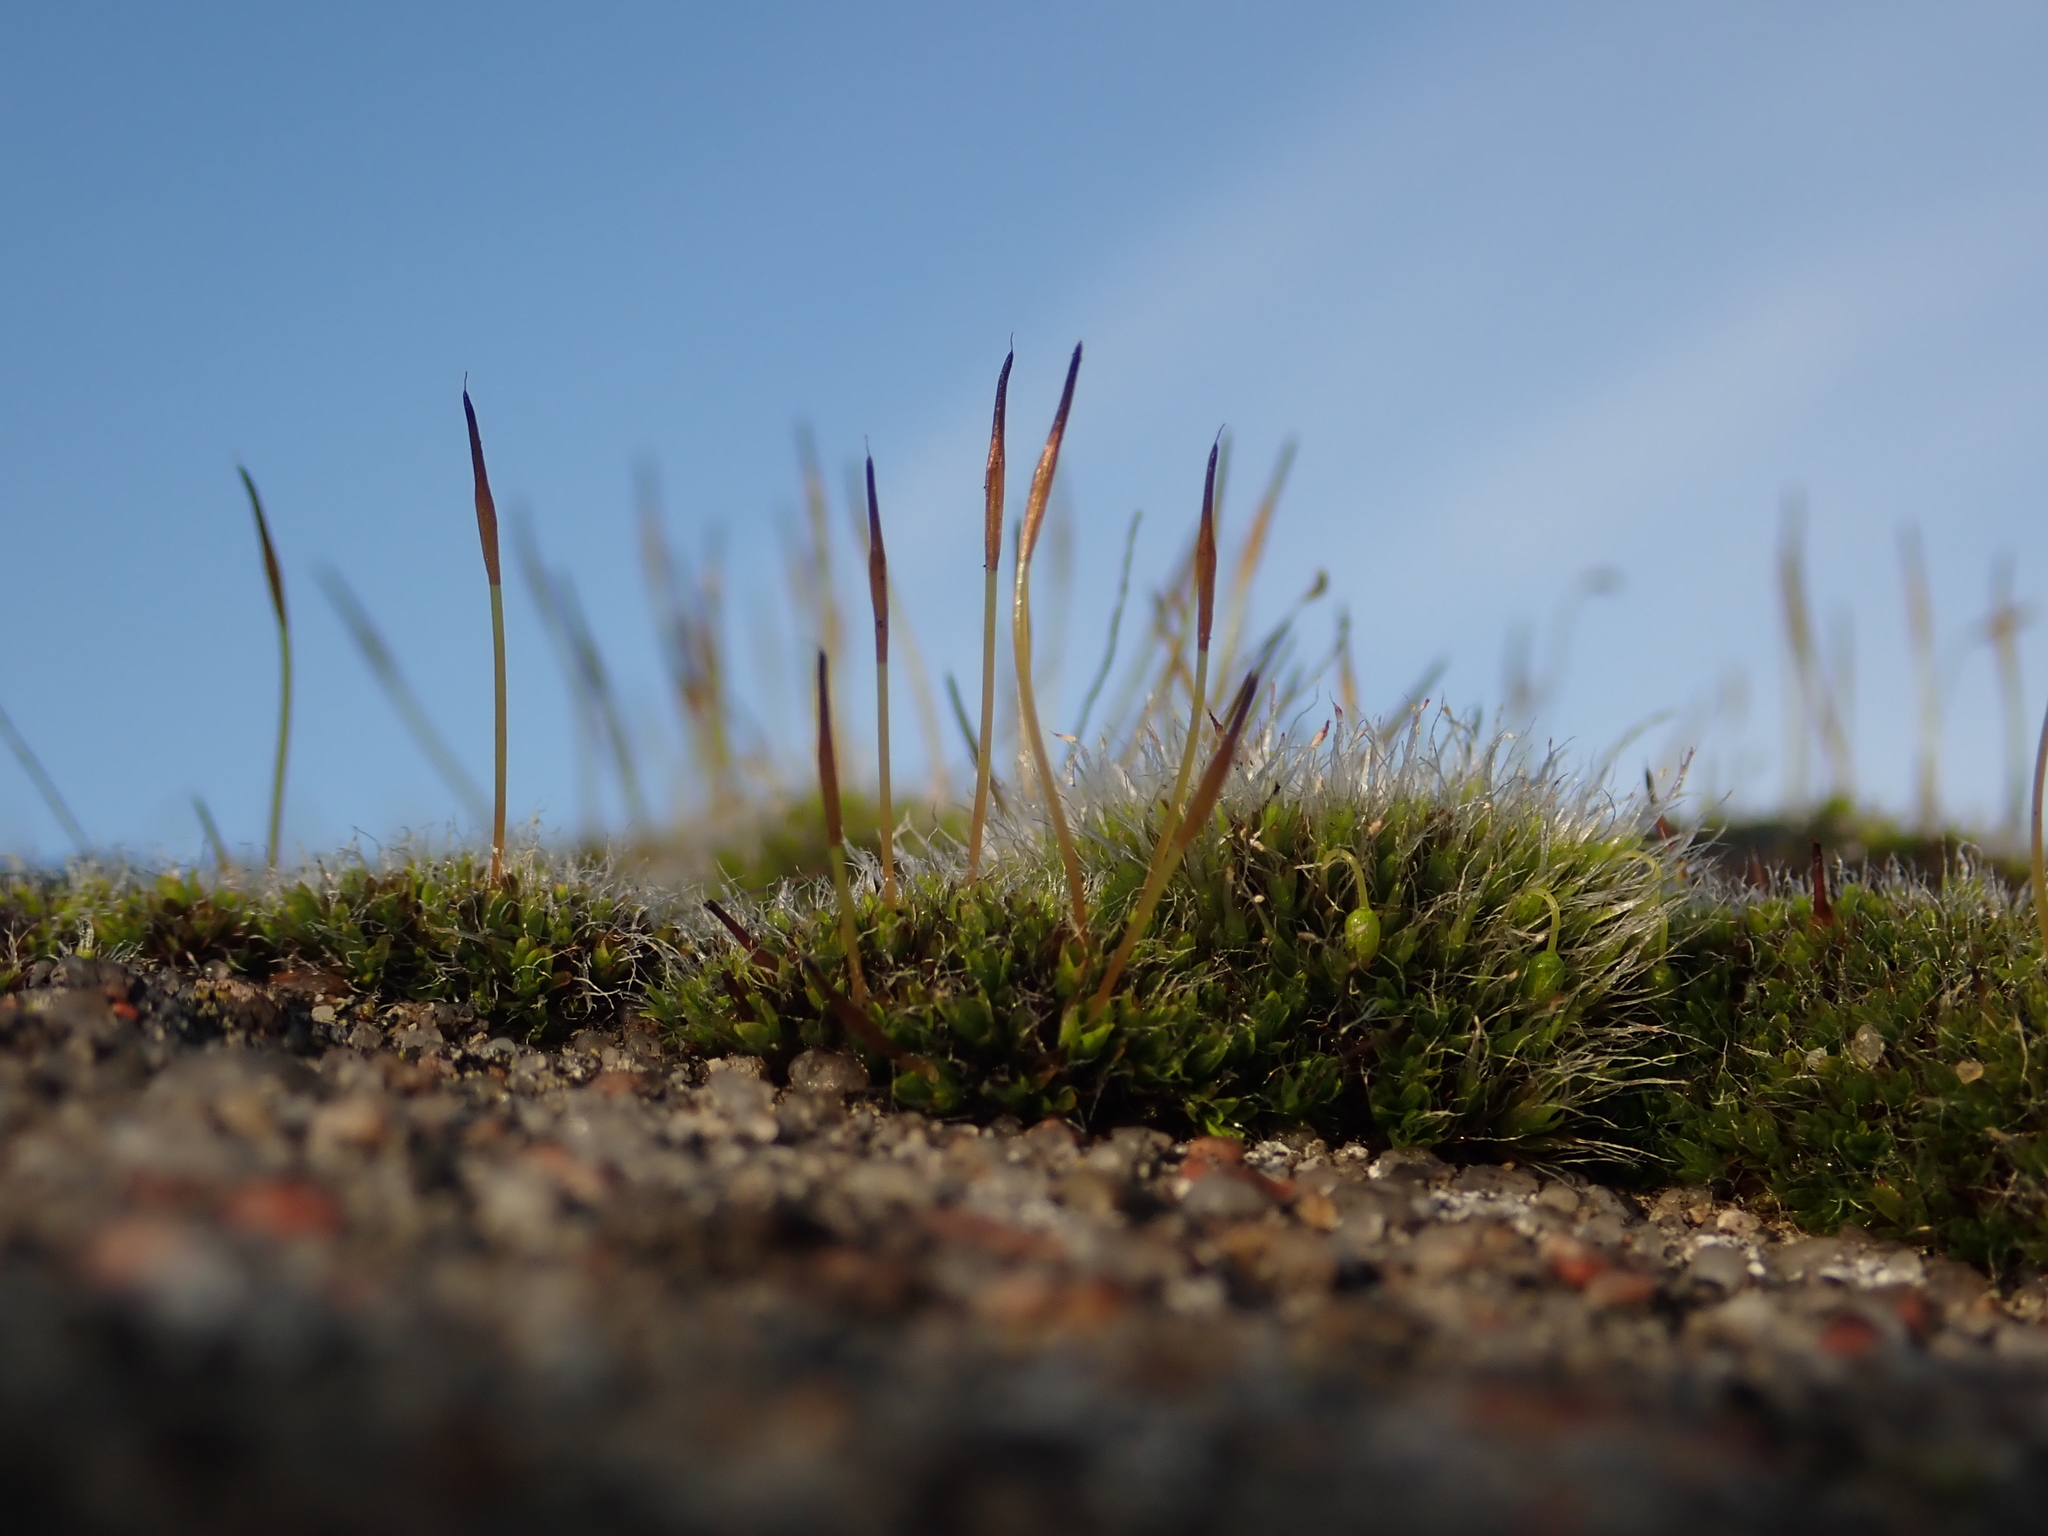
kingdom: Plantae
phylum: Bryophyta
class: Bryopsida
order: Pottiales
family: Pottiaceae
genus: Tortula
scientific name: Tortula muralis
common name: Wall screw-moss
